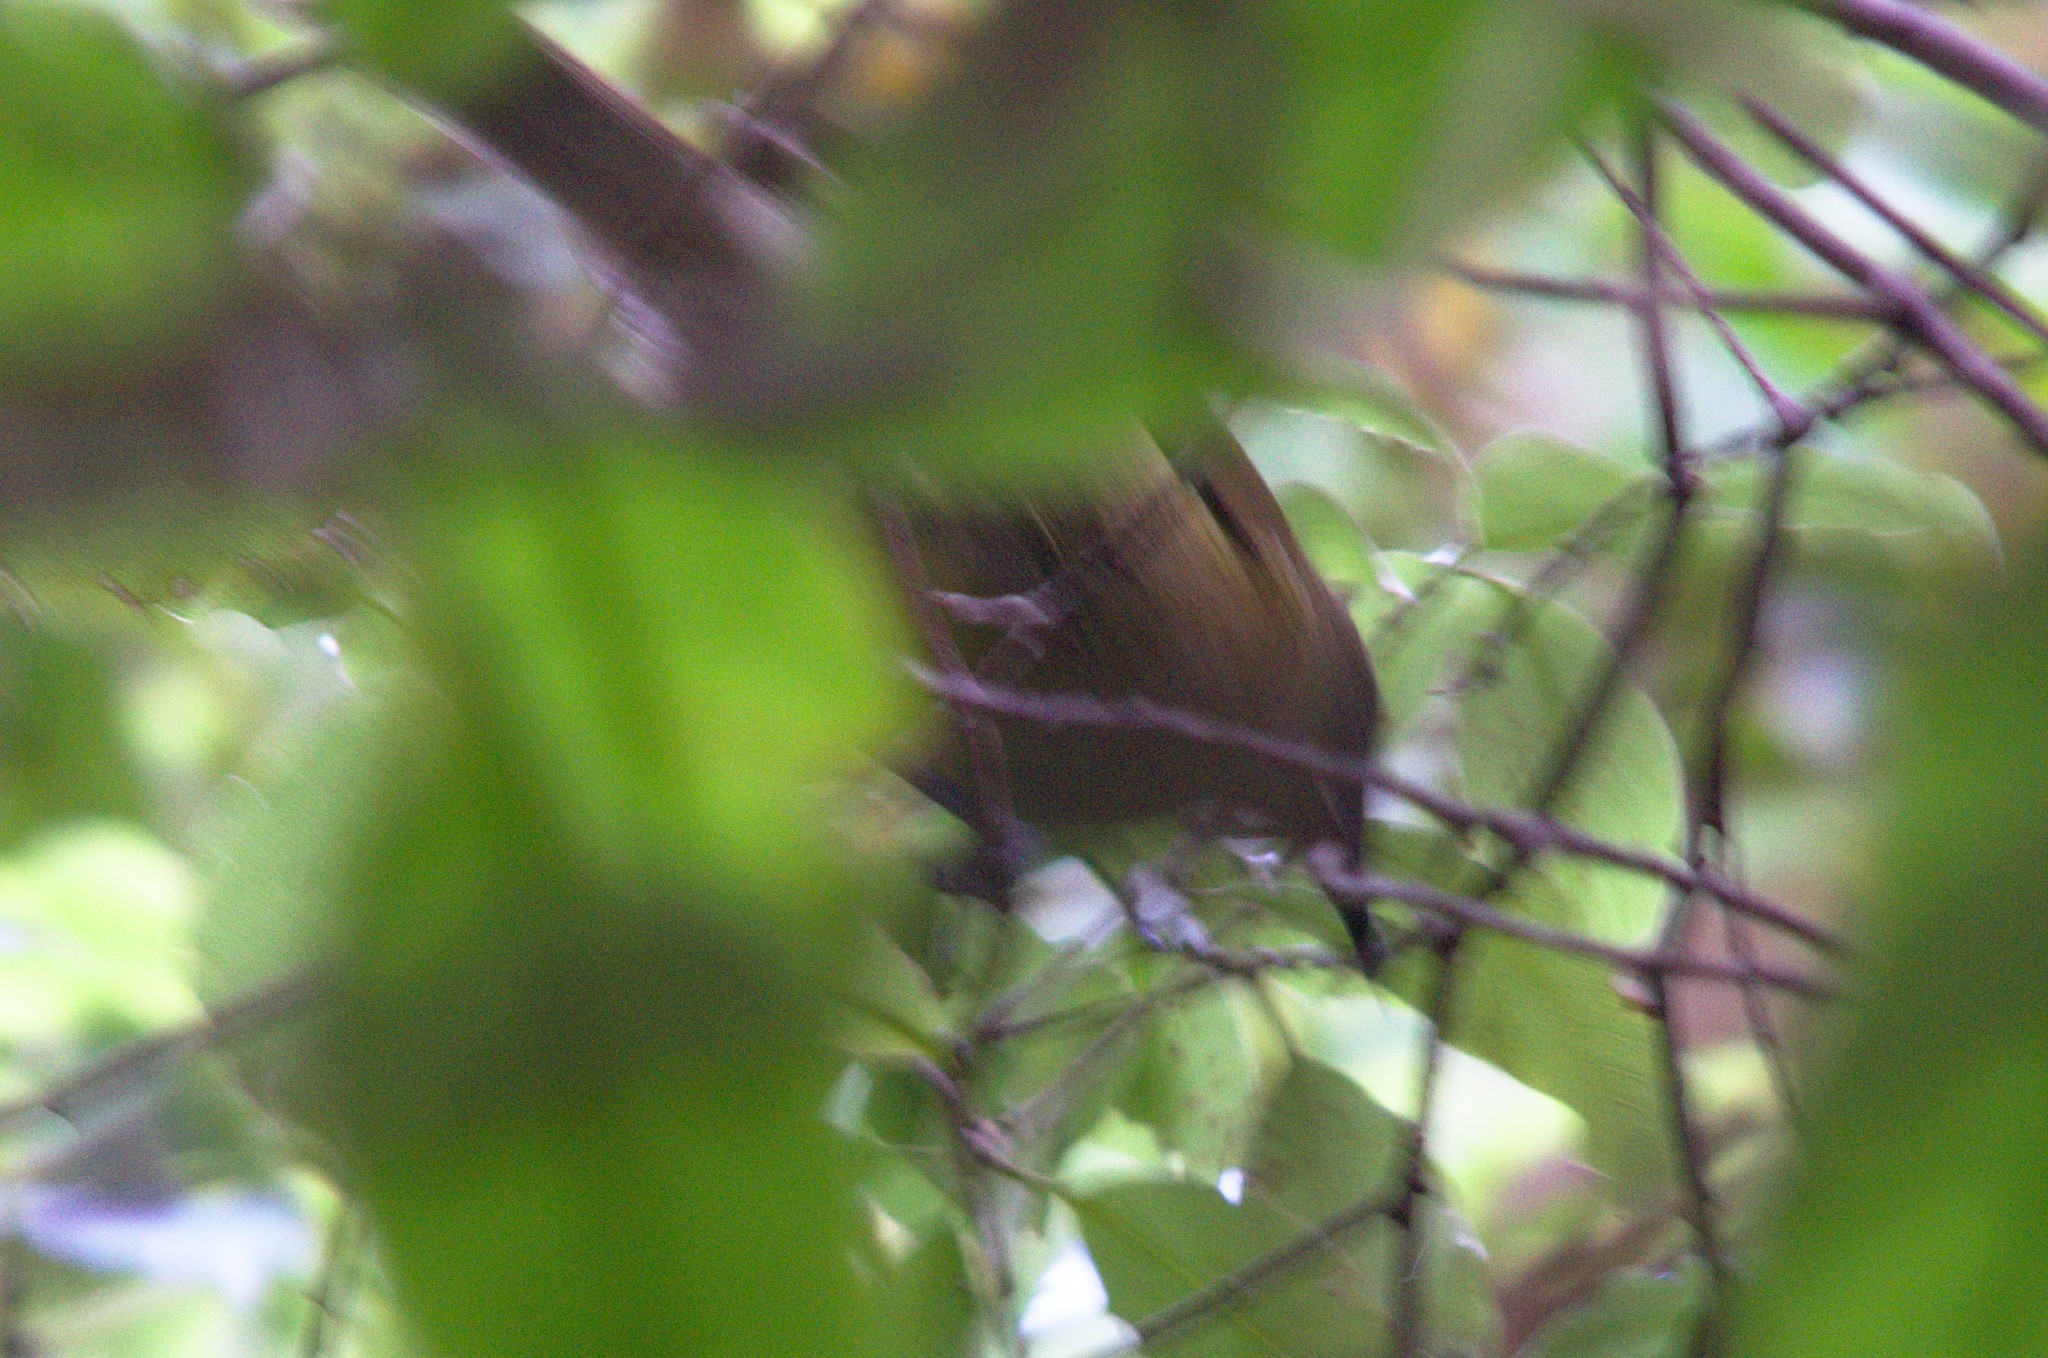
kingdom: Animalia
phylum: Chordata
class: Aves
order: Passeriformes
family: Meliphagidae
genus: Anthornis
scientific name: Anthornis melanura
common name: New zealand bellbird
